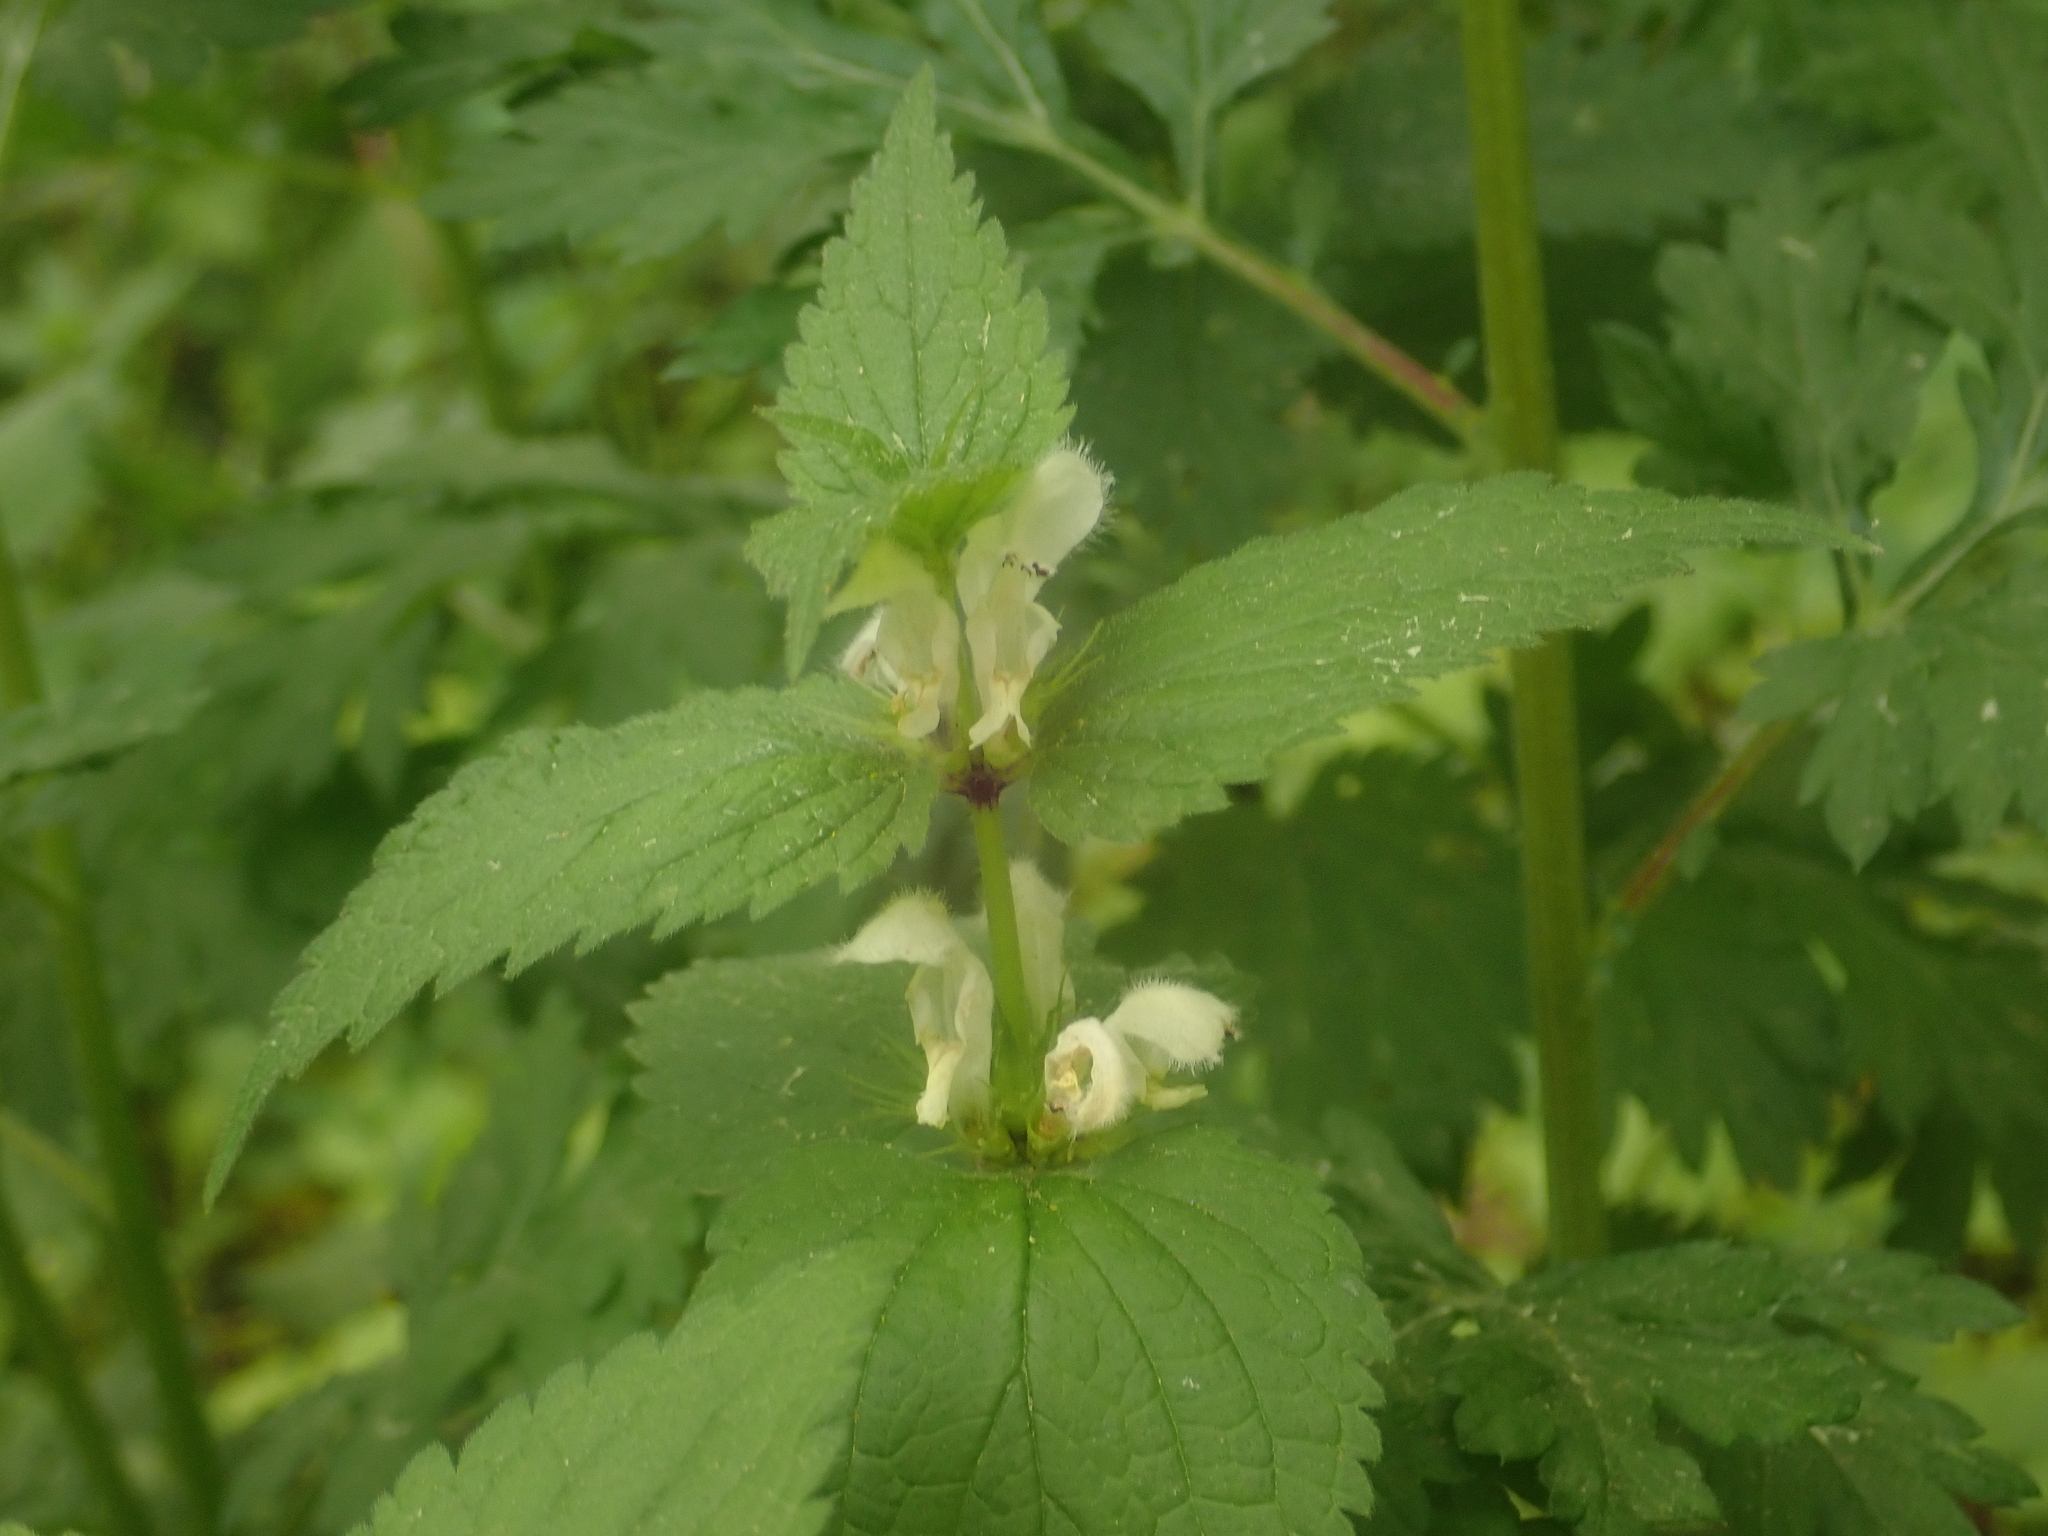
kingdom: Plantae
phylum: Tracheophyta
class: Magnoliopsida
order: Lamiales
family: Lamiaceae
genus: Lamium
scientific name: Lamium album
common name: White dead-nettle
